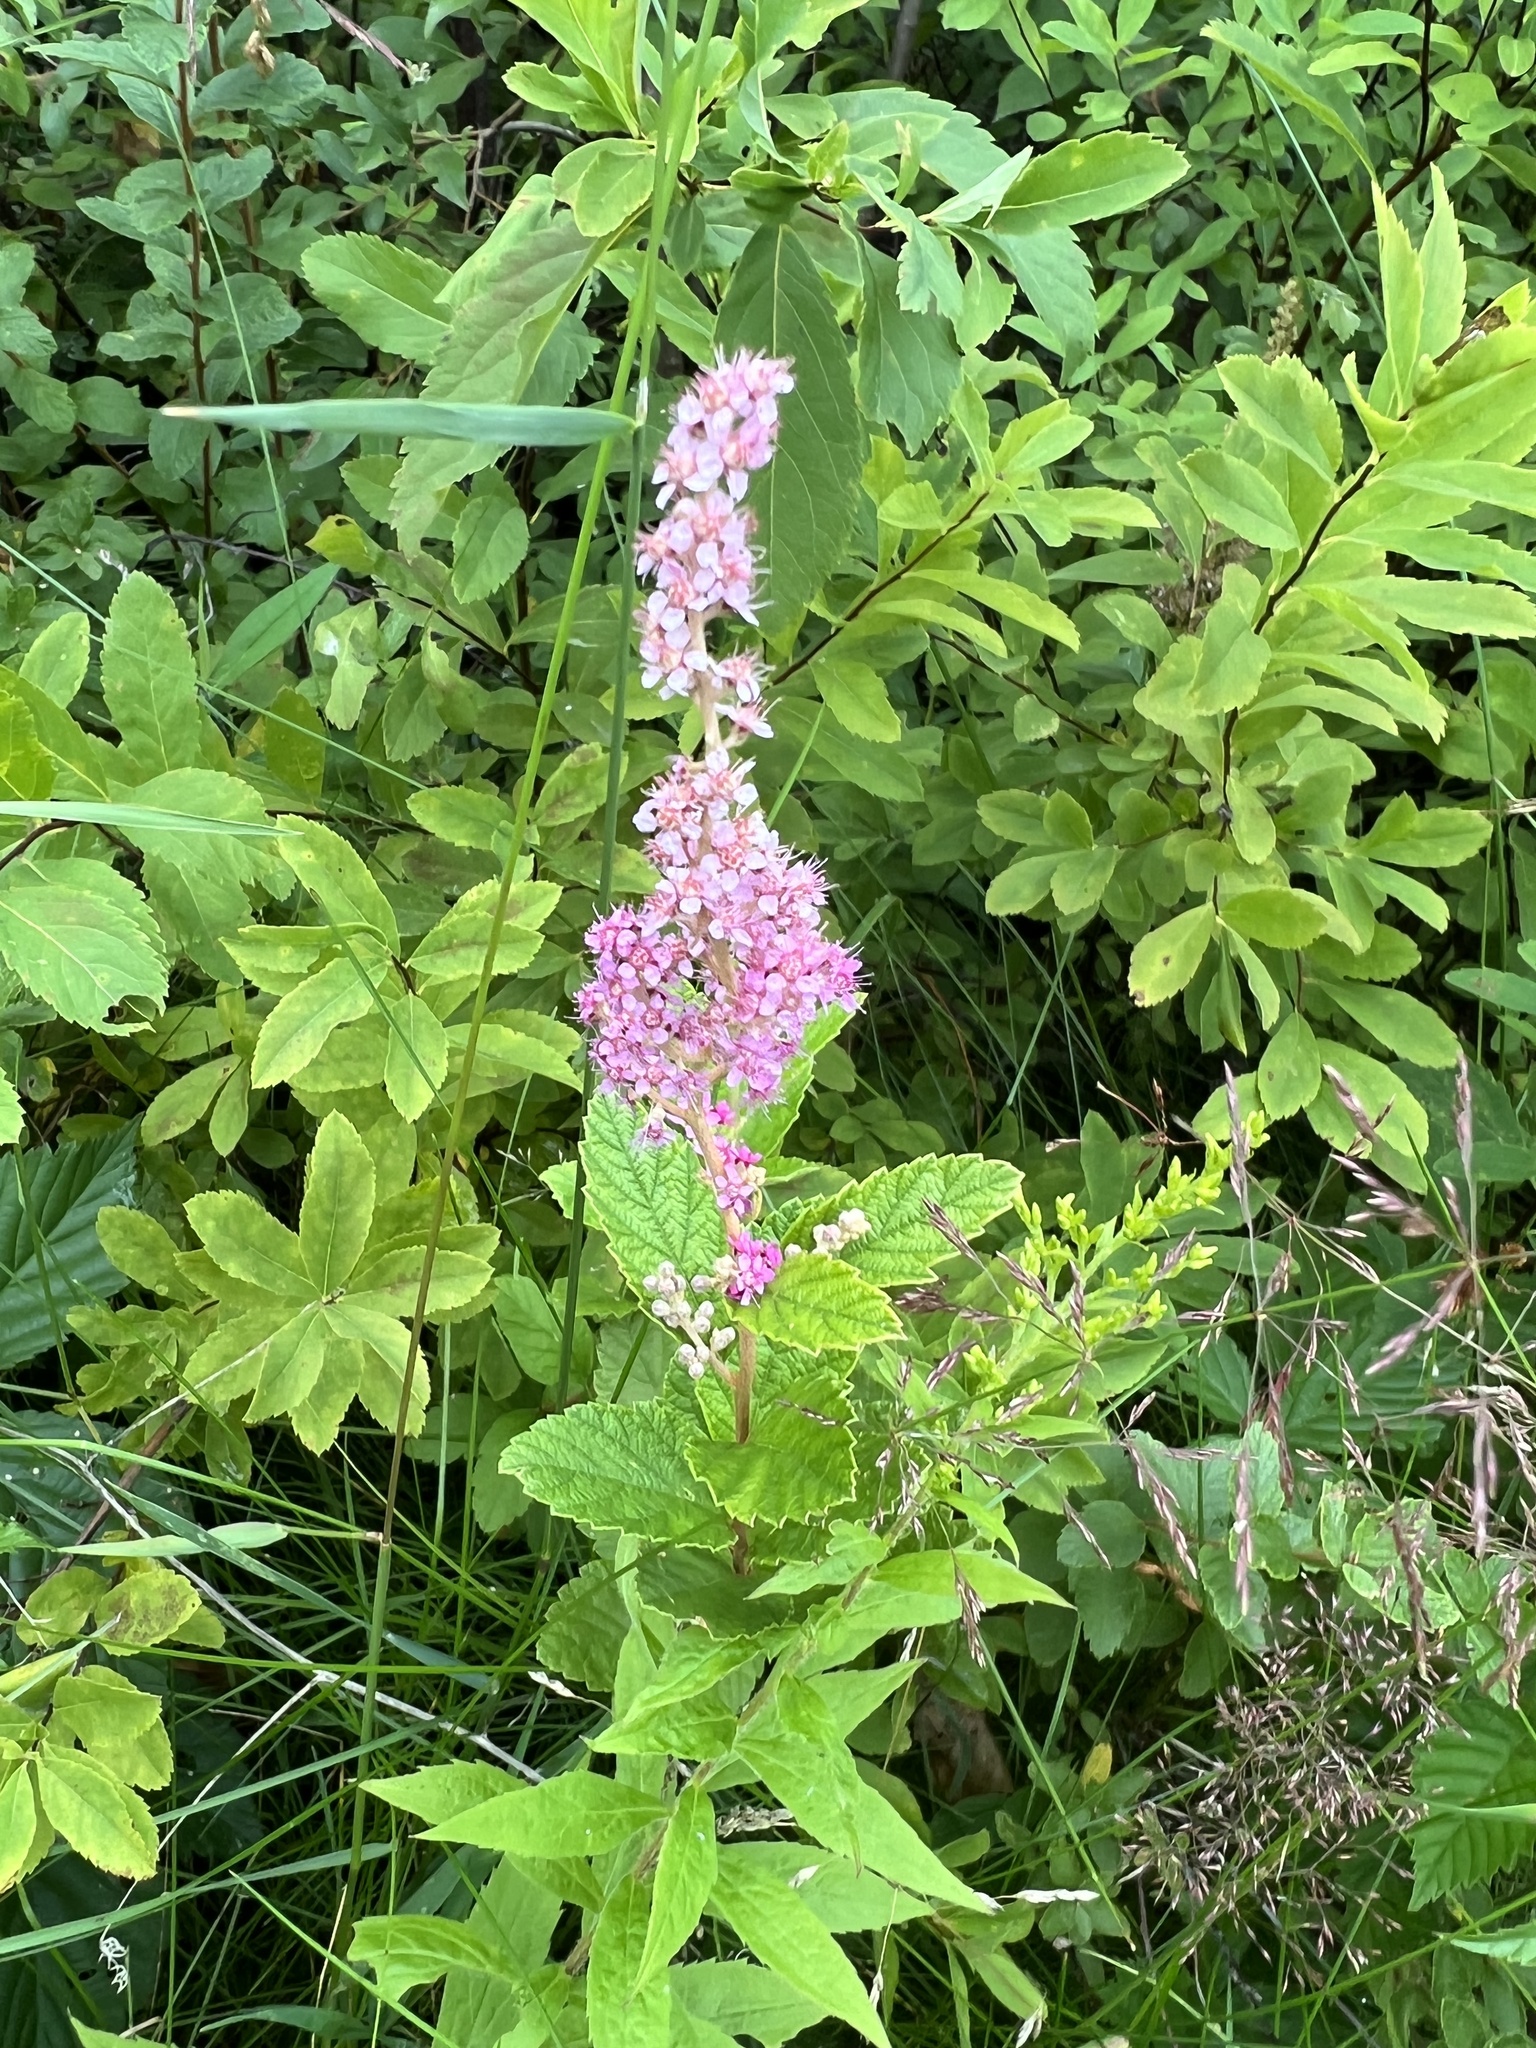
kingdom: Plantae
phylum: Tracheophyta
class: Magnoliopsida
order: Rosales
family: Rosaceae
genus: Spiraea
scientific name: Spiraea tomentosa
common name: Hardhack
